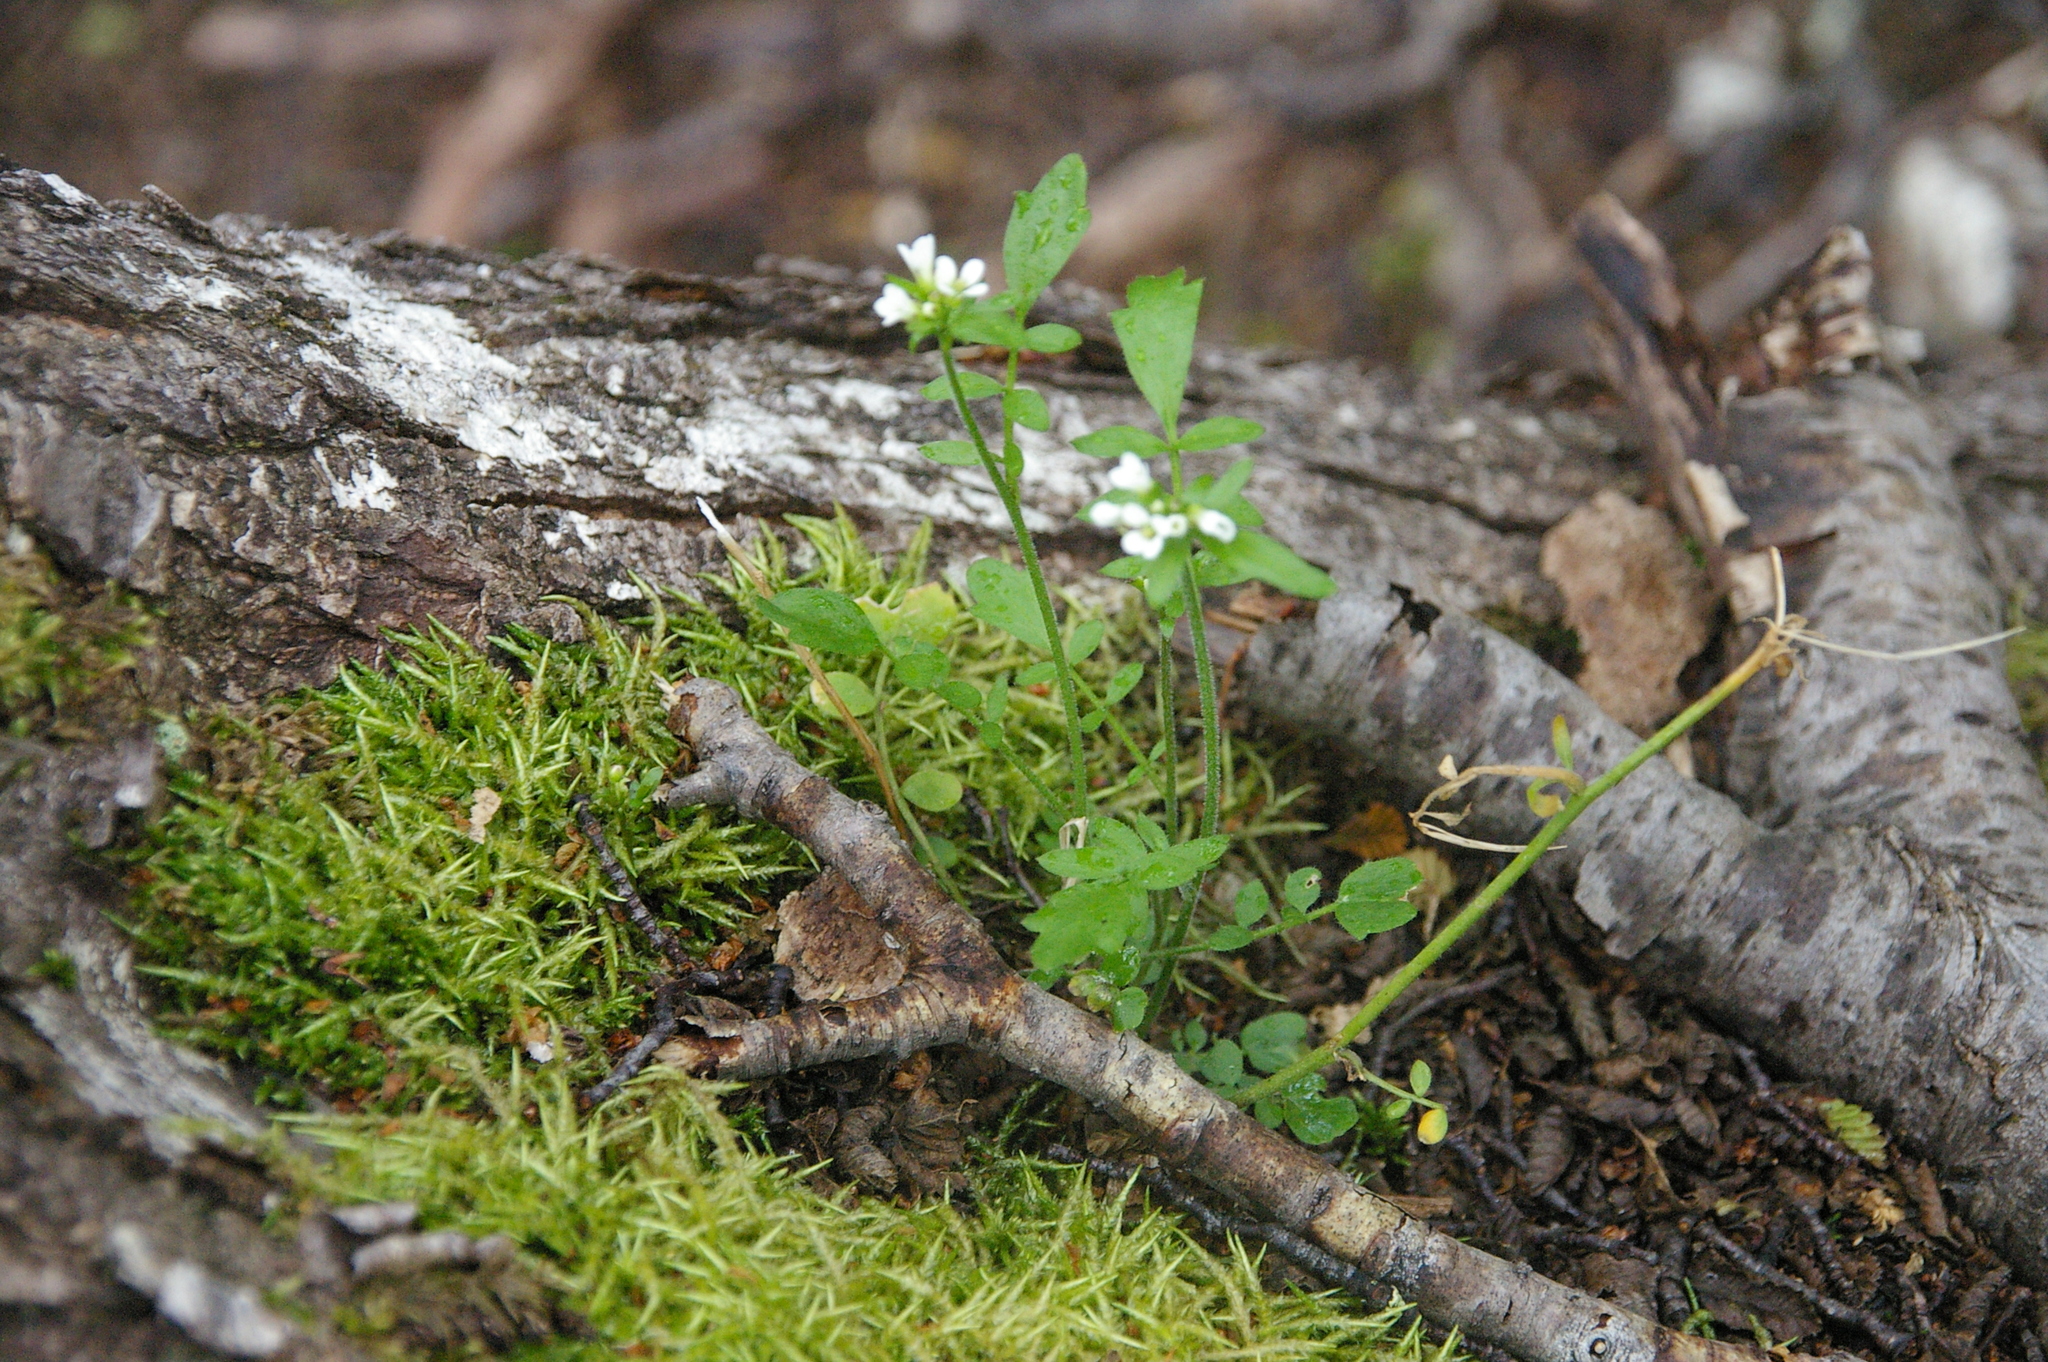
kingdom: Plantae
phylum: Tracheophyta
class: Magnoliopsida
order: Brassicales
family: Brassicaceae
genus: Cardamine
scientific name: Cardamine glacialis
